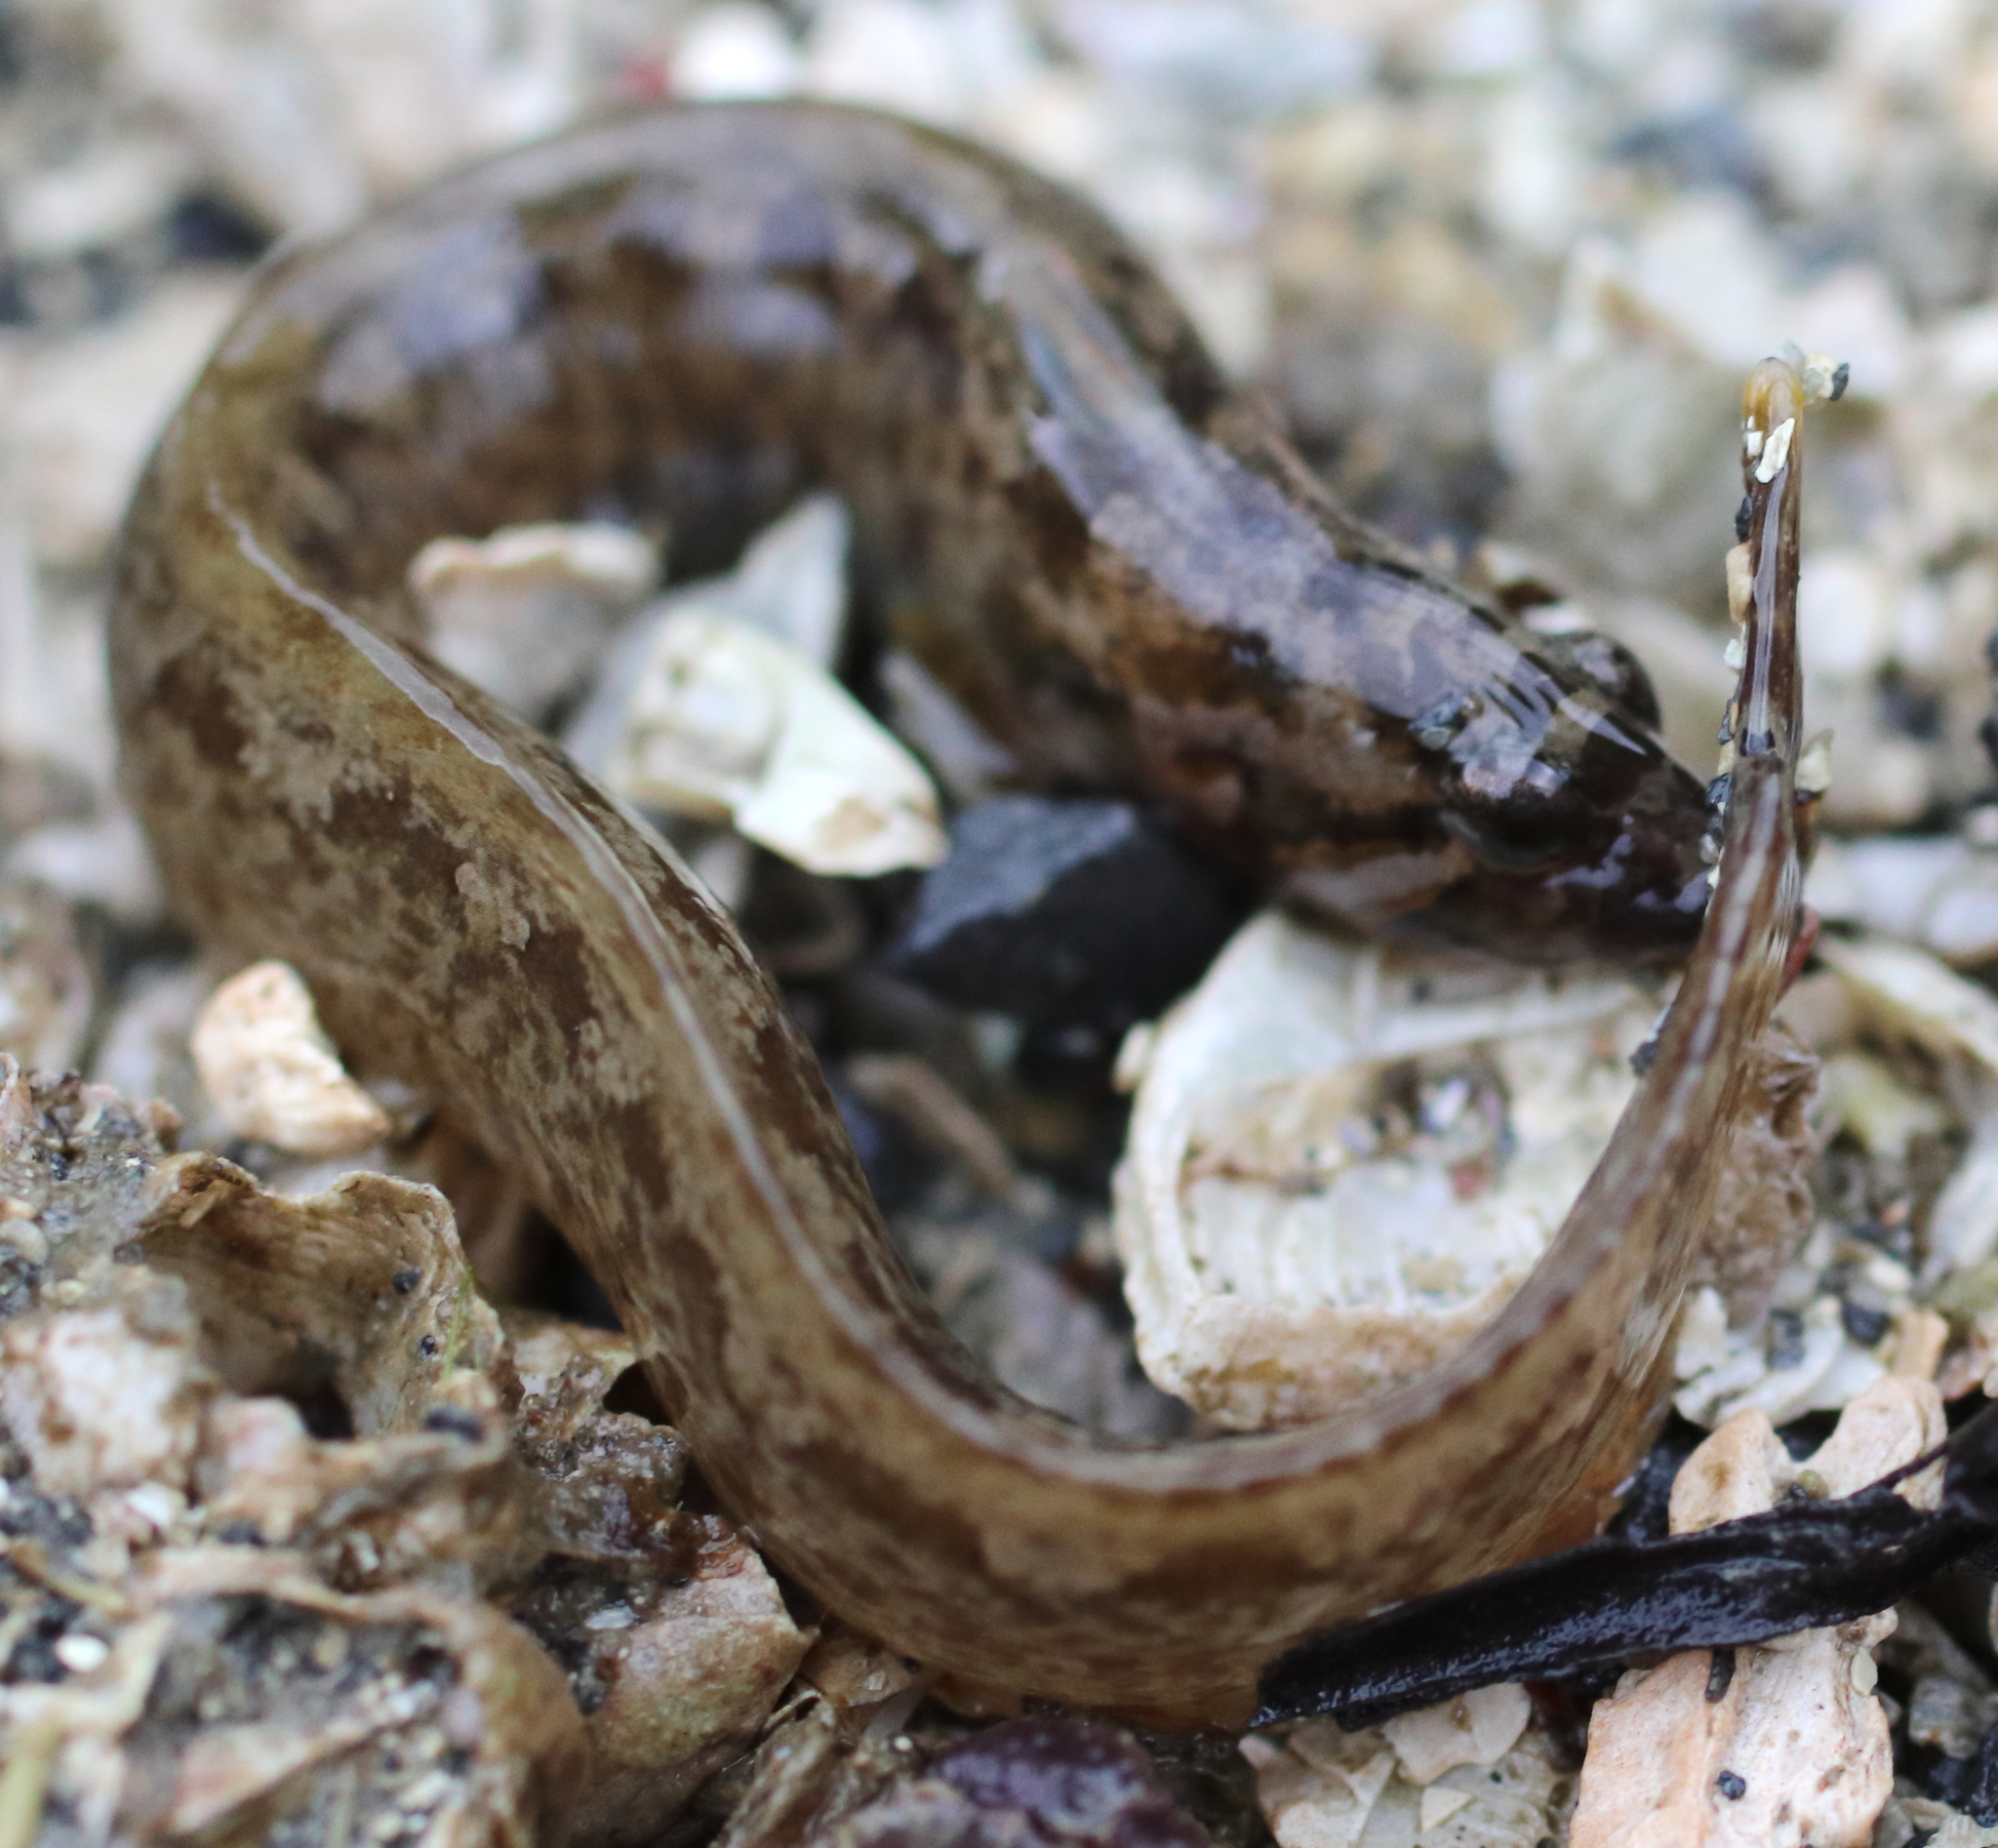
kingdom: Animalia
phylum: Chordata
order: Perciformes
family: Stichaeidae
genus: Anoplarchus
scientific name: Anoplarchus purpurescens
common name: High cockscomb
